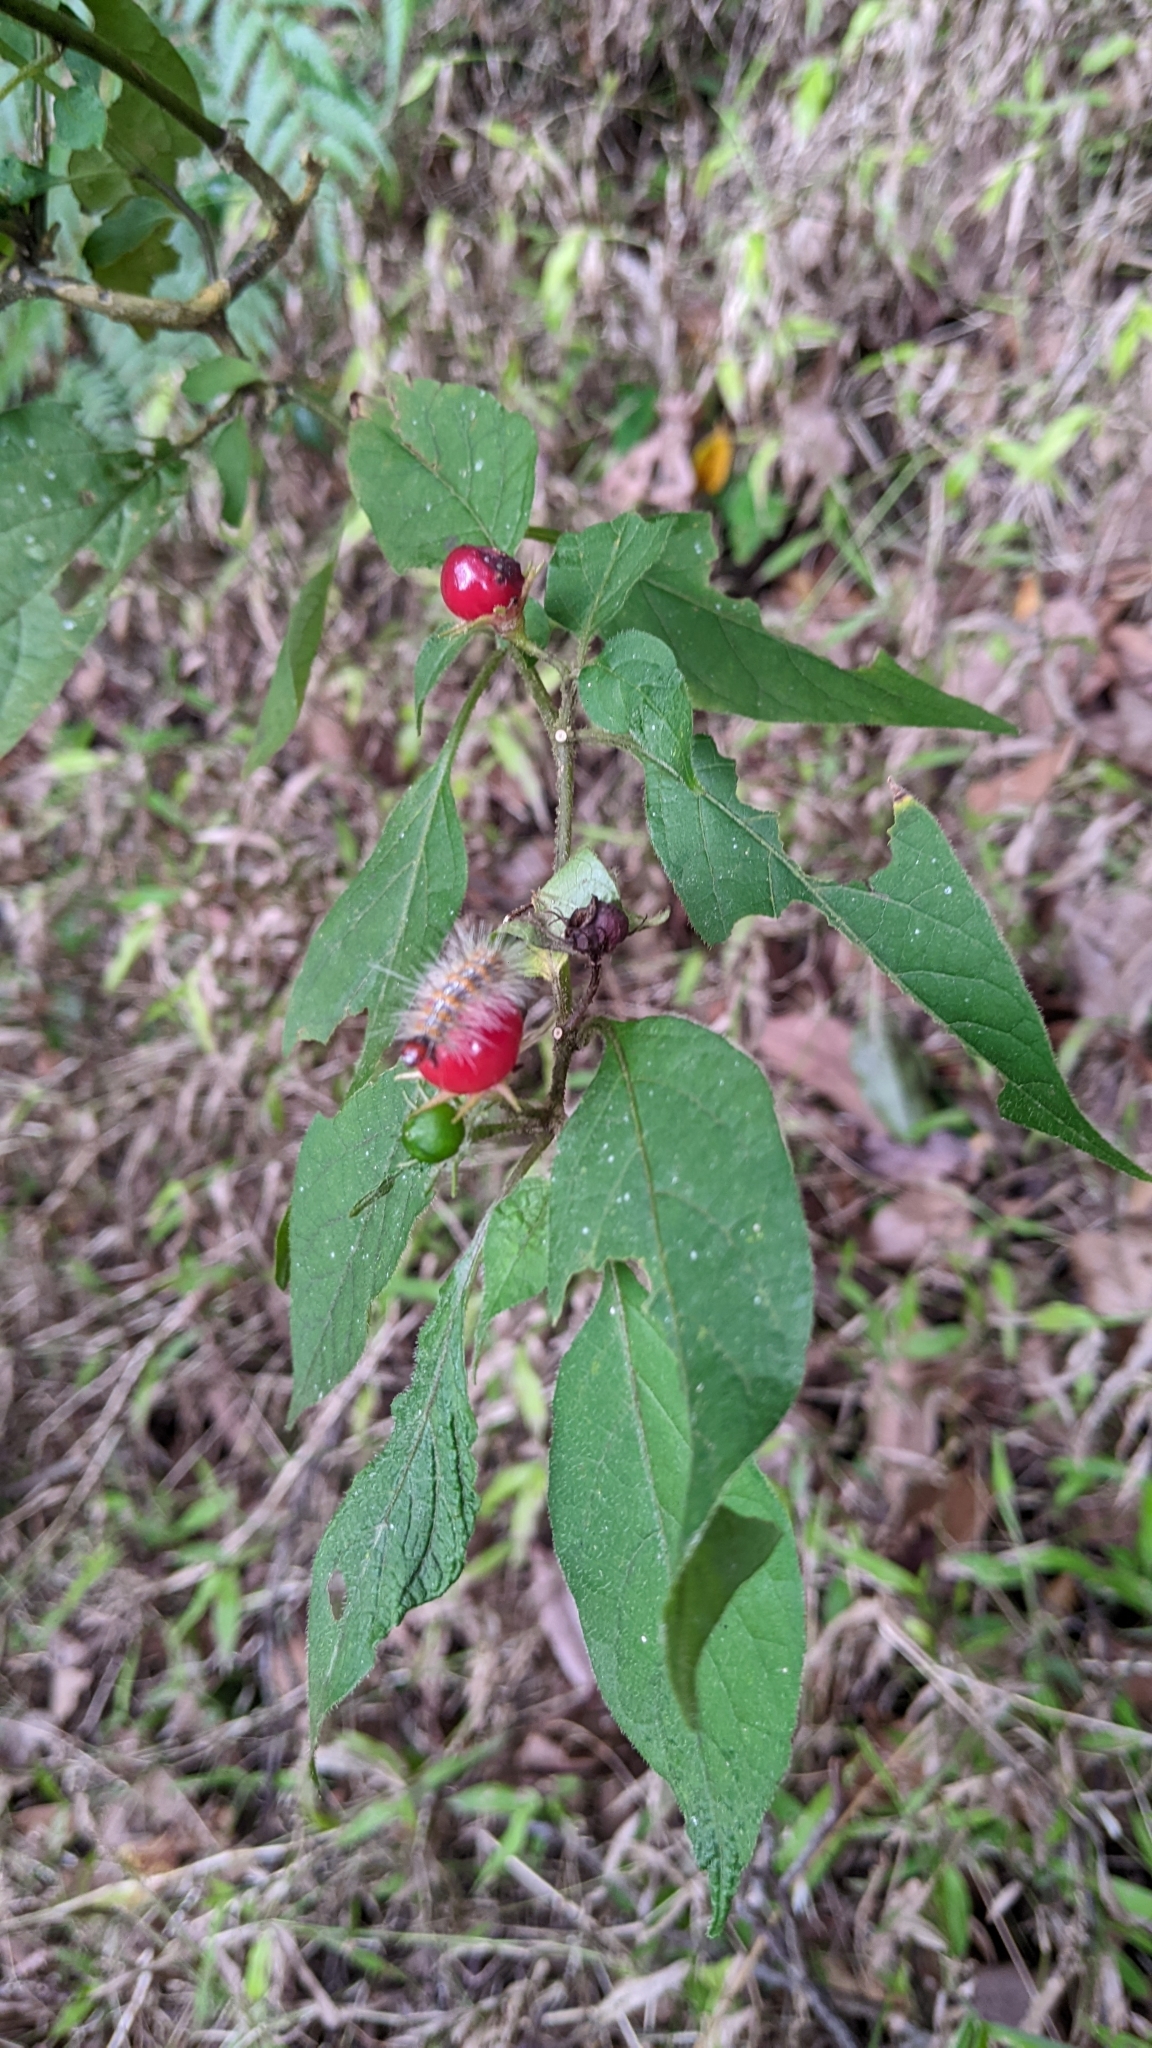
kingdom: Plantae
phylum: Tracheophyta
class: Magnoliopsida
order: Solanales
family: Solanaceae
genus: Lycianthes
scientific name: Lycianthes biflora
